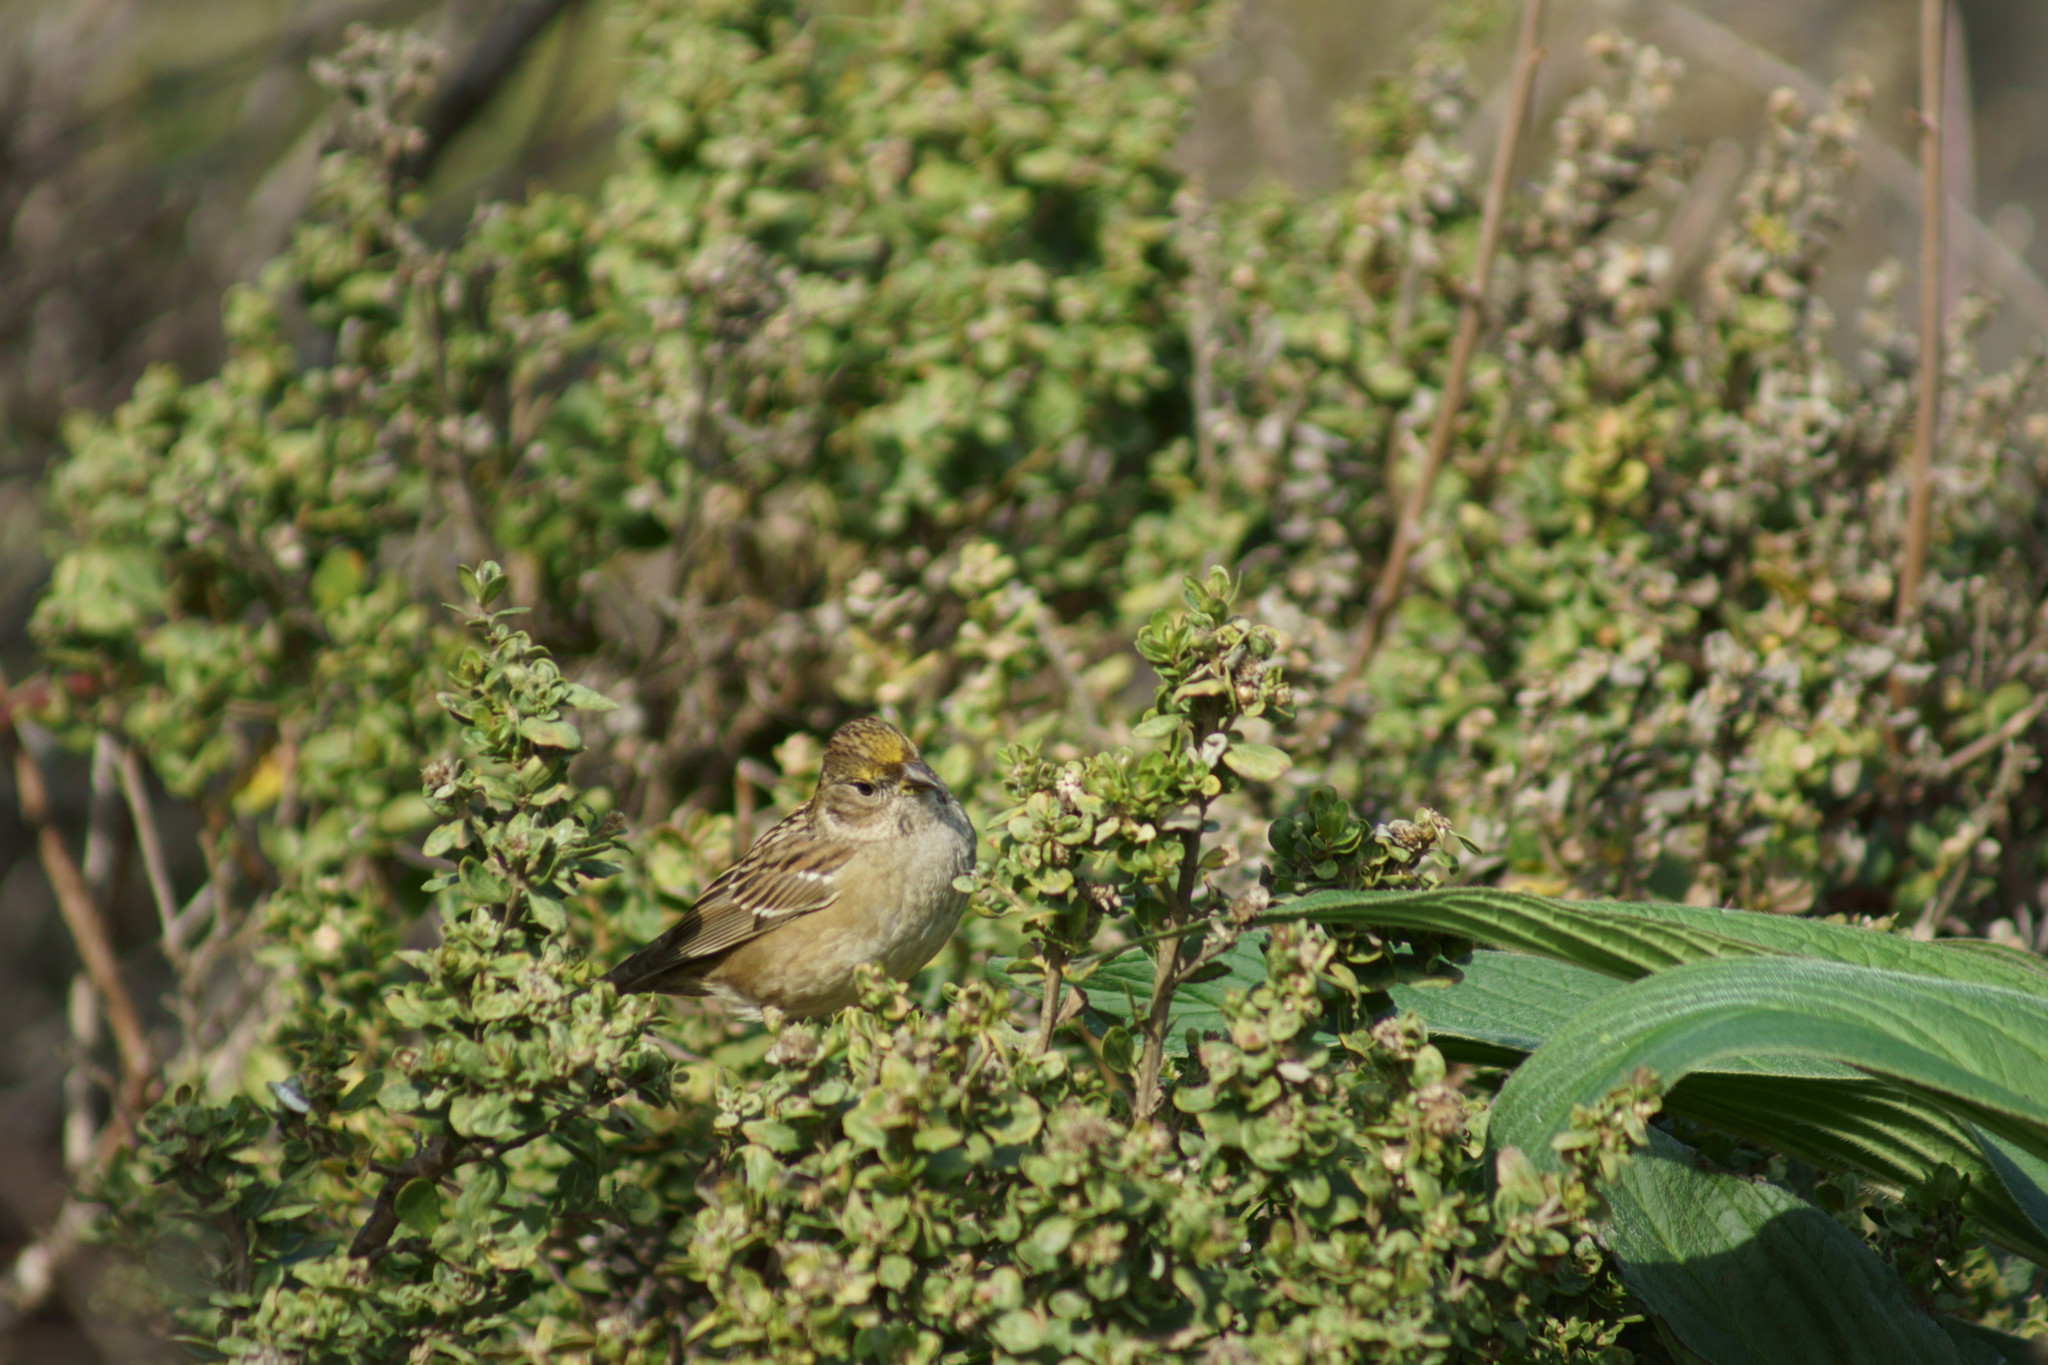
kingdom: Animalia
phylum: Chordata
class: Aves
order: Passeriformes
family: Passerellidae
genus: Zonotrichia
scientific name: Zonotrichia atricapilla
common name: Golden-crowned sparrow
